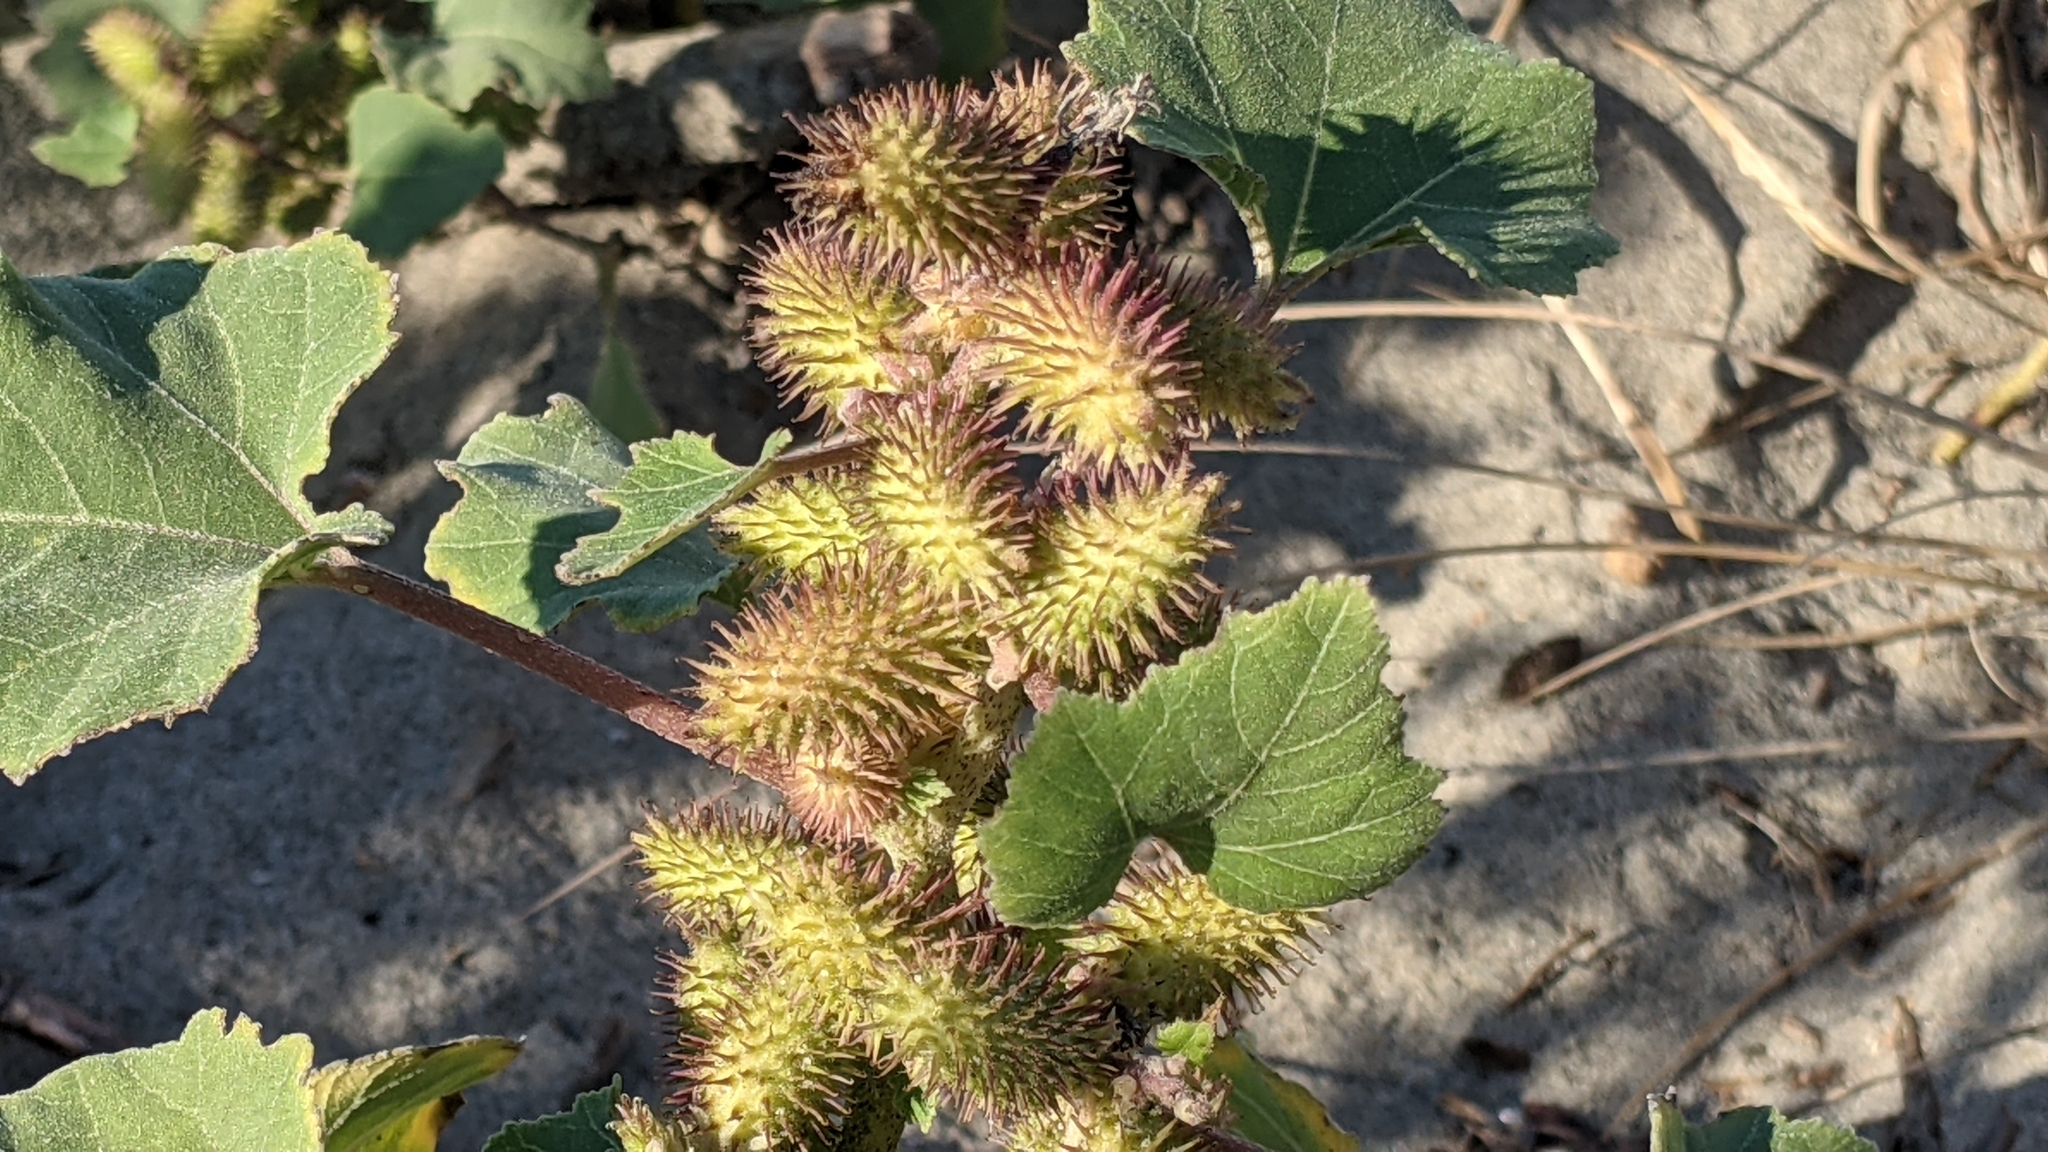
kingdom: Plantae
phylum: Tracheophyta
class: Magnoliopsida
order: Asterales
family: Asteraceae
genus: Xanthium
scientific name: Xanthium orientale
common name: Californian burr
